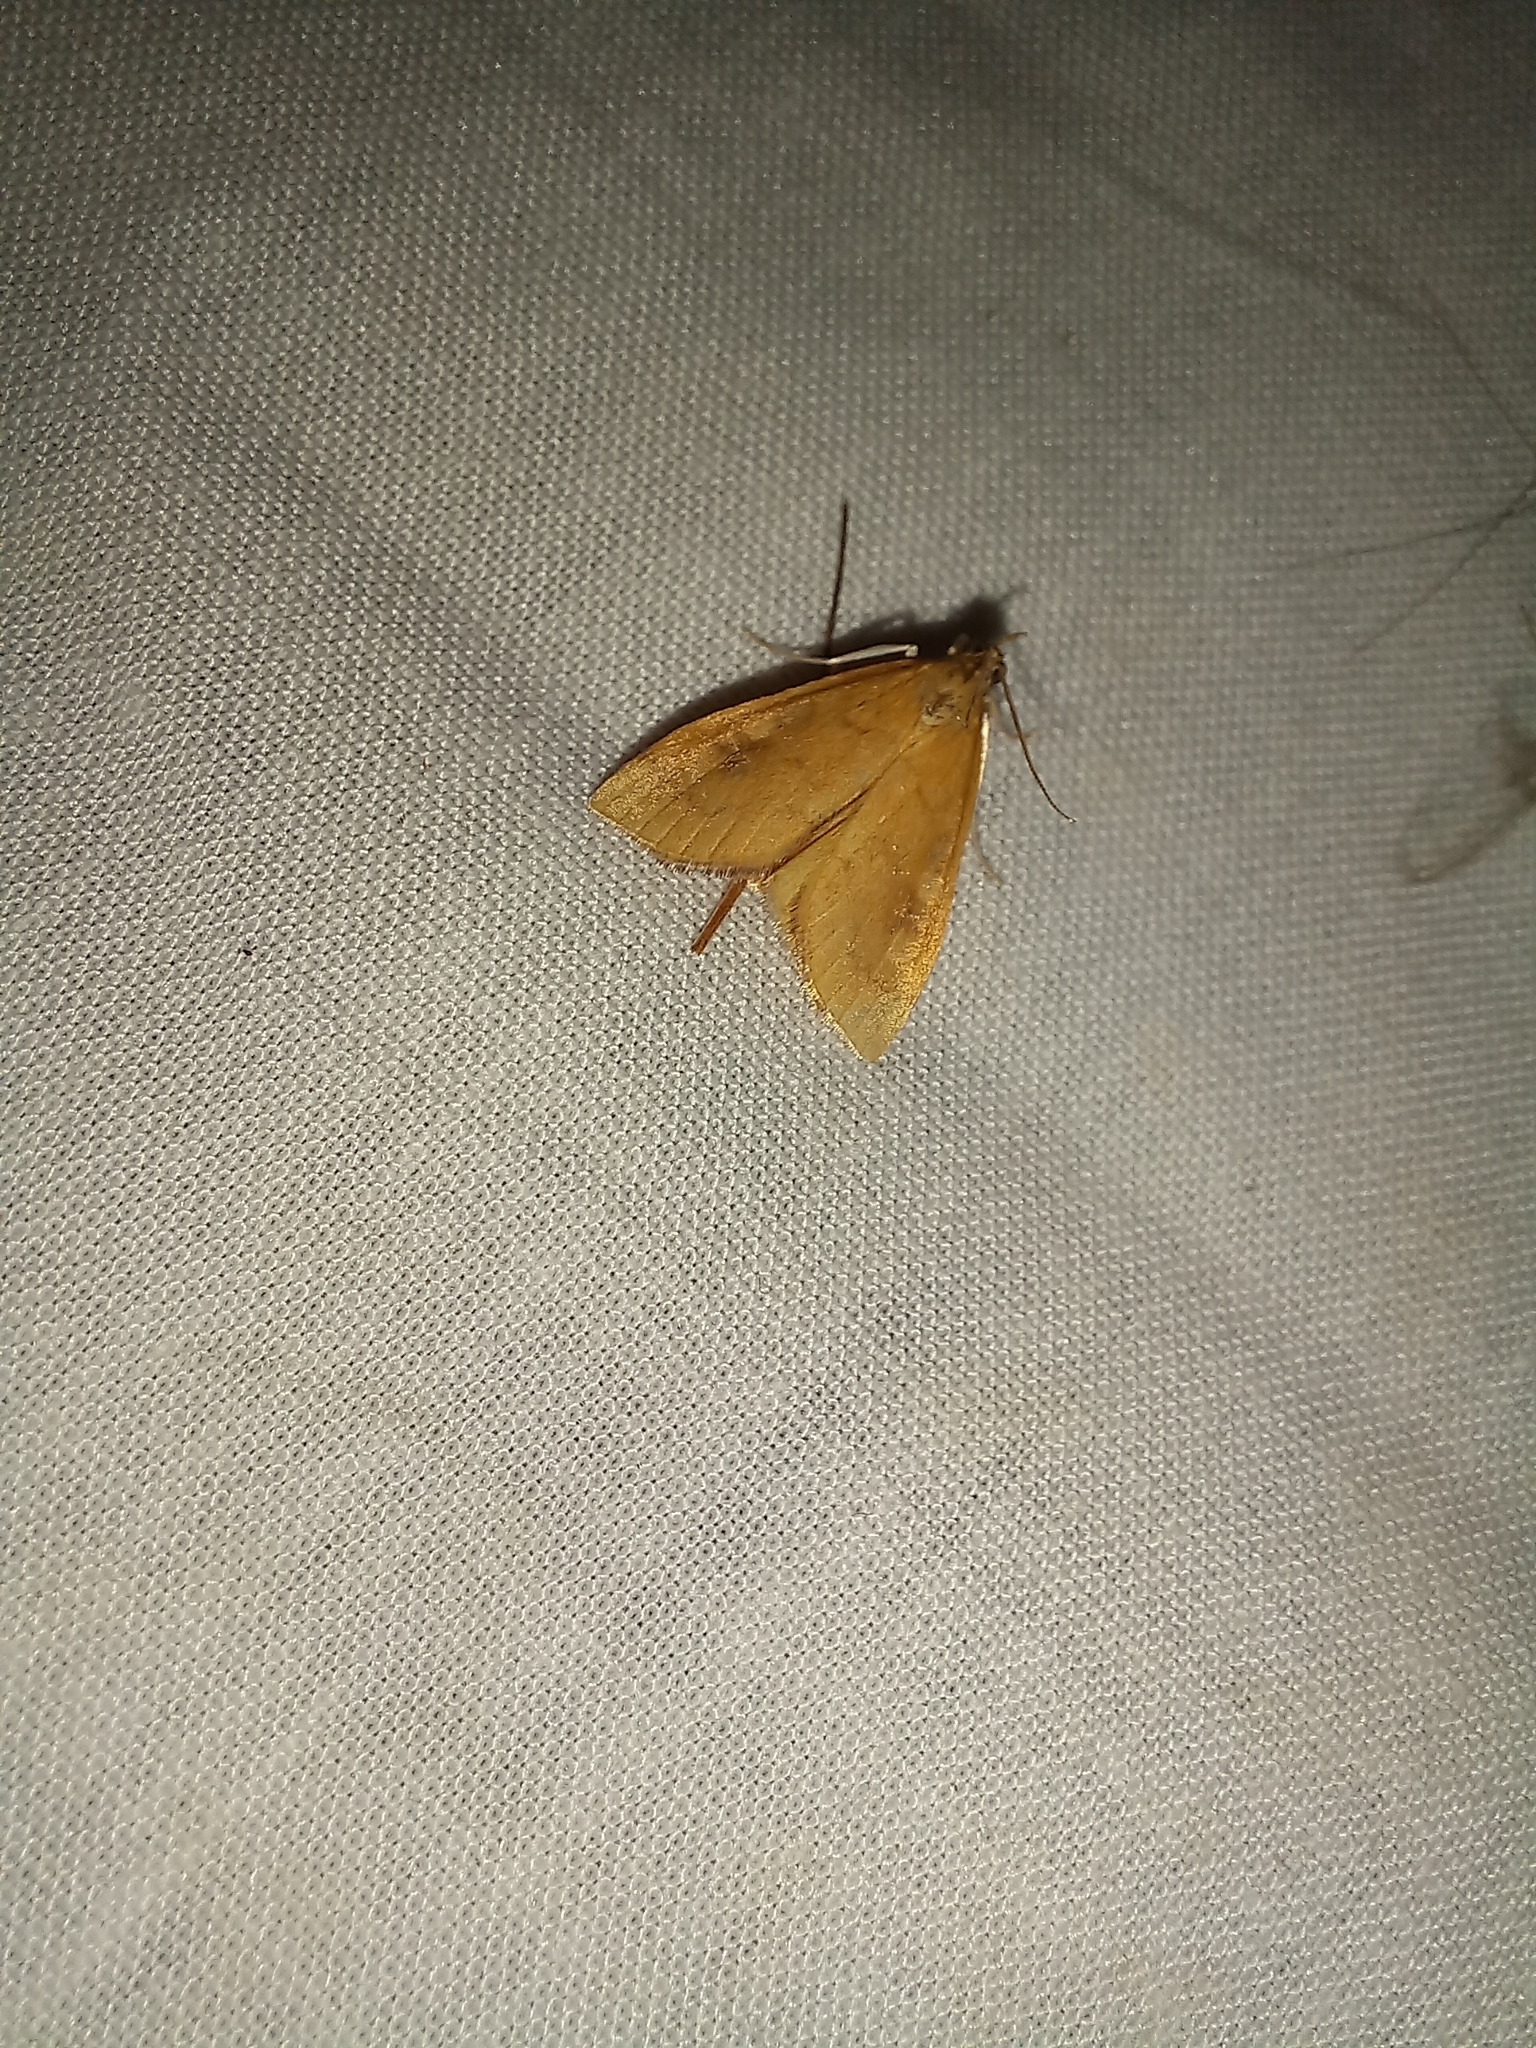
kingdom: Animalia
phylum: Arthropoda
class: Insecta
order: Lepidoptera
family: Crambidae
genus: Udea
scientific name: Udea Mnesictena flavidalis
